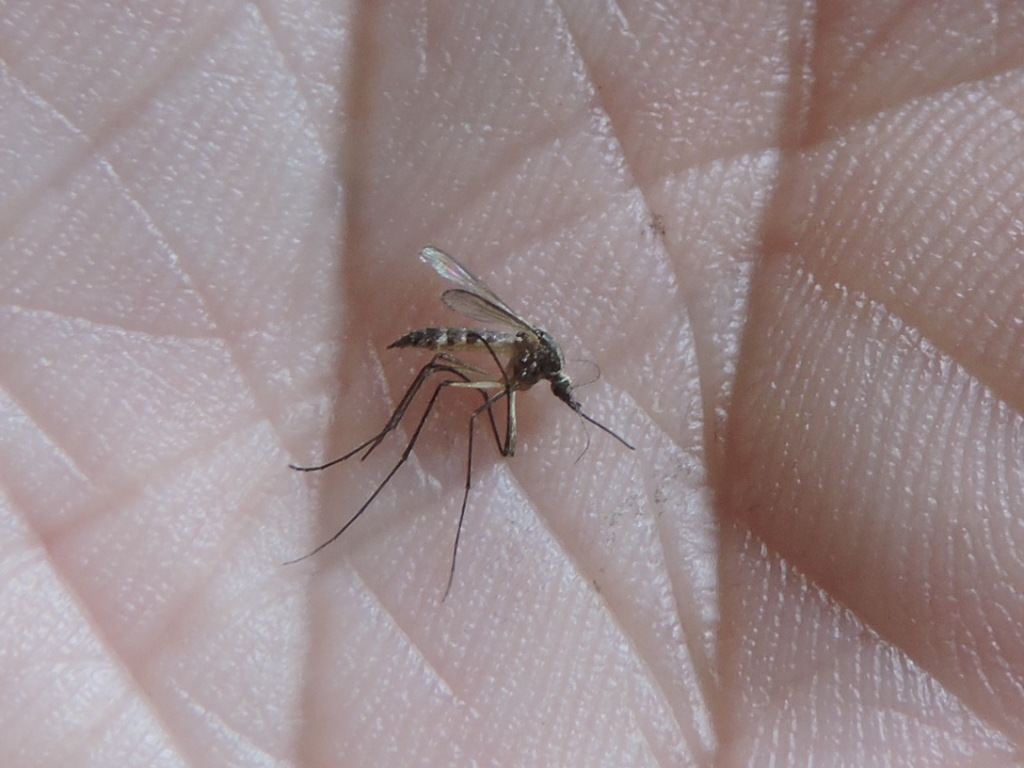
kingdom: Animalia
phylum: Arthropoda
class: Insecta
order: Diptera
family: Culicidae
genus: Aedes
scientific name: Aedes trivittatus
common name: Plains floodwater mosquito
